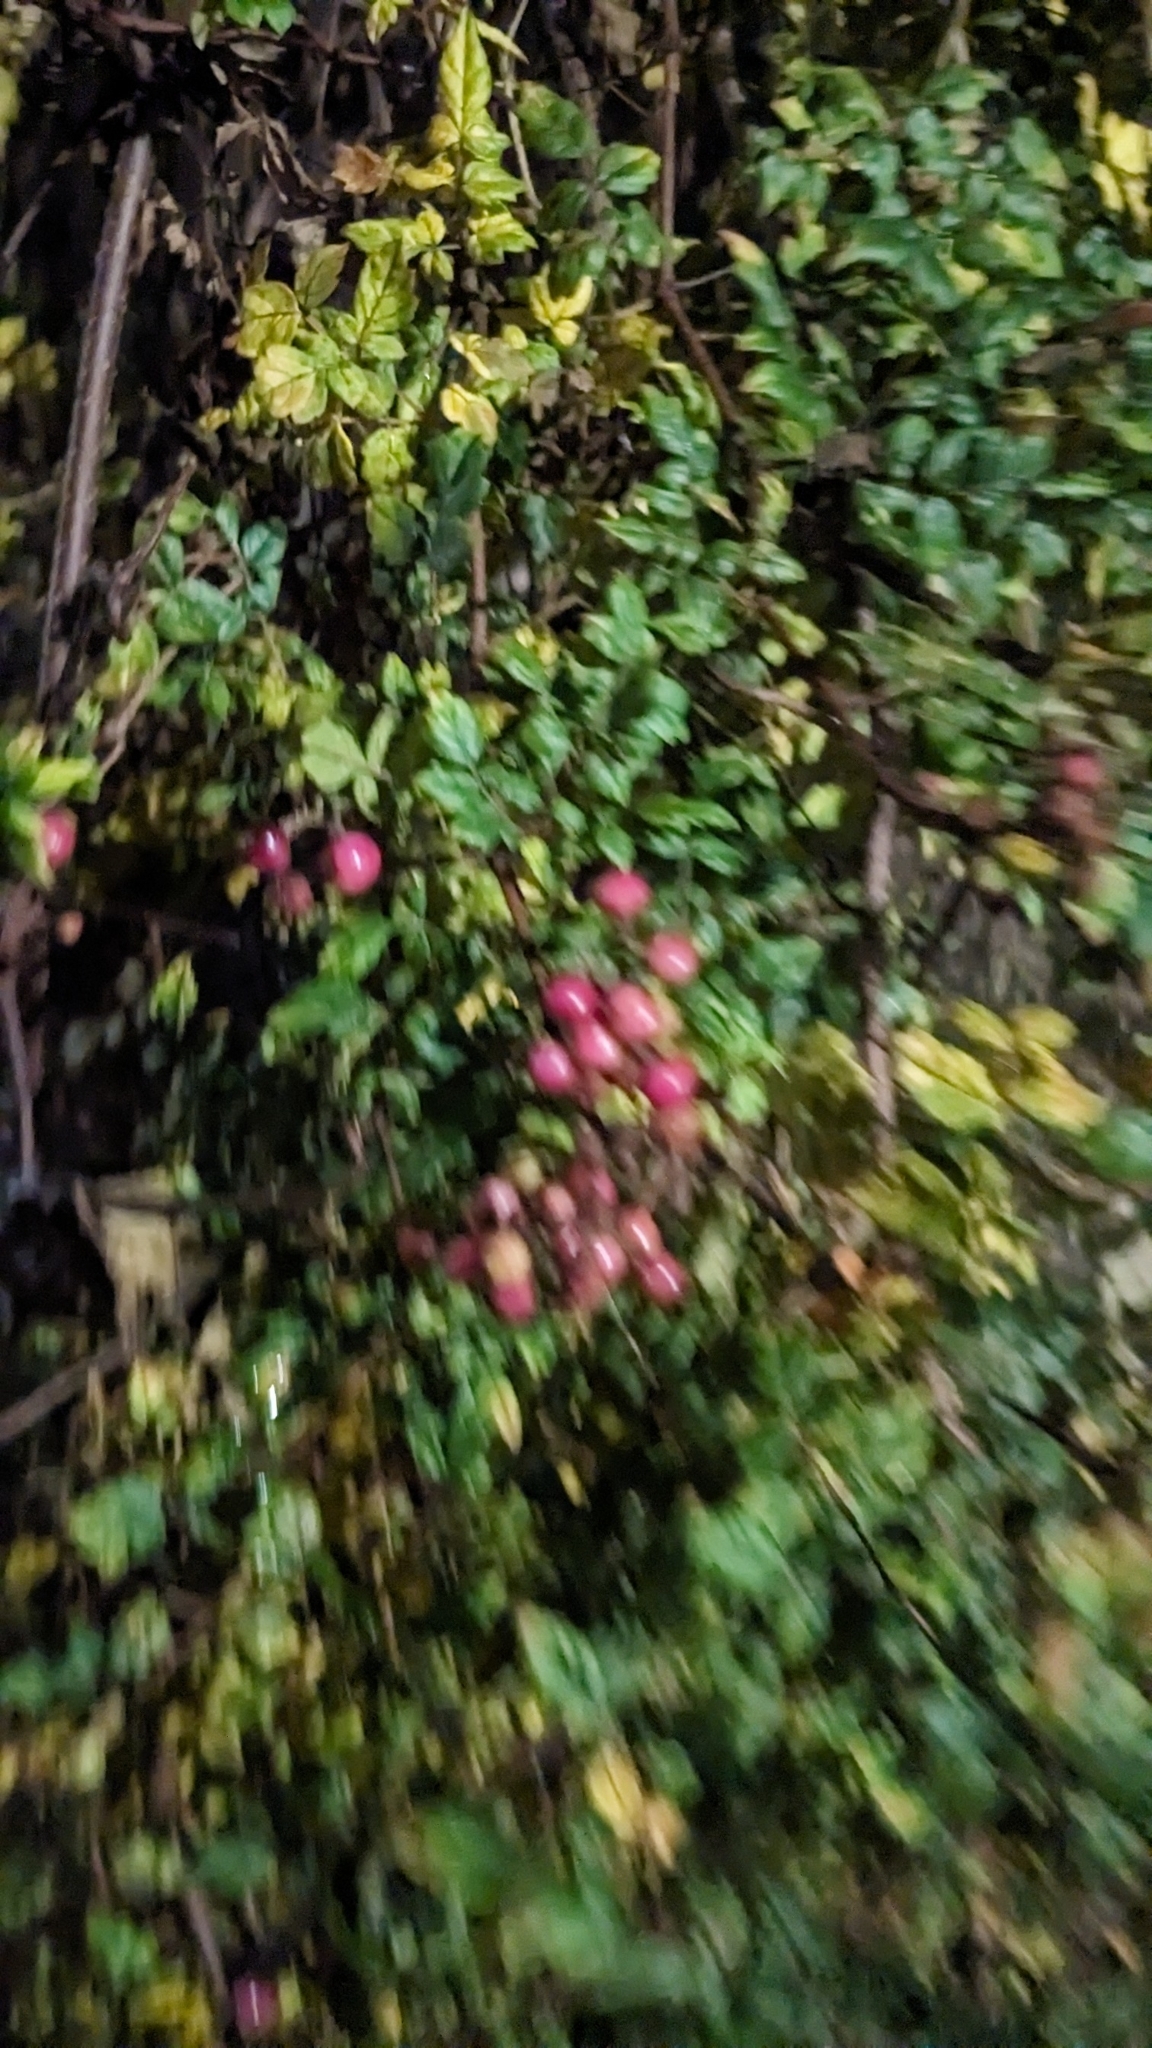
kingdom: Plantae
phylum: Tracheophyta
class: Magnoliopsida
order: Vitales
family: Vitaceae
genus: Nekemias
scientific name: Nekemias arborea
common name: Peppervine
